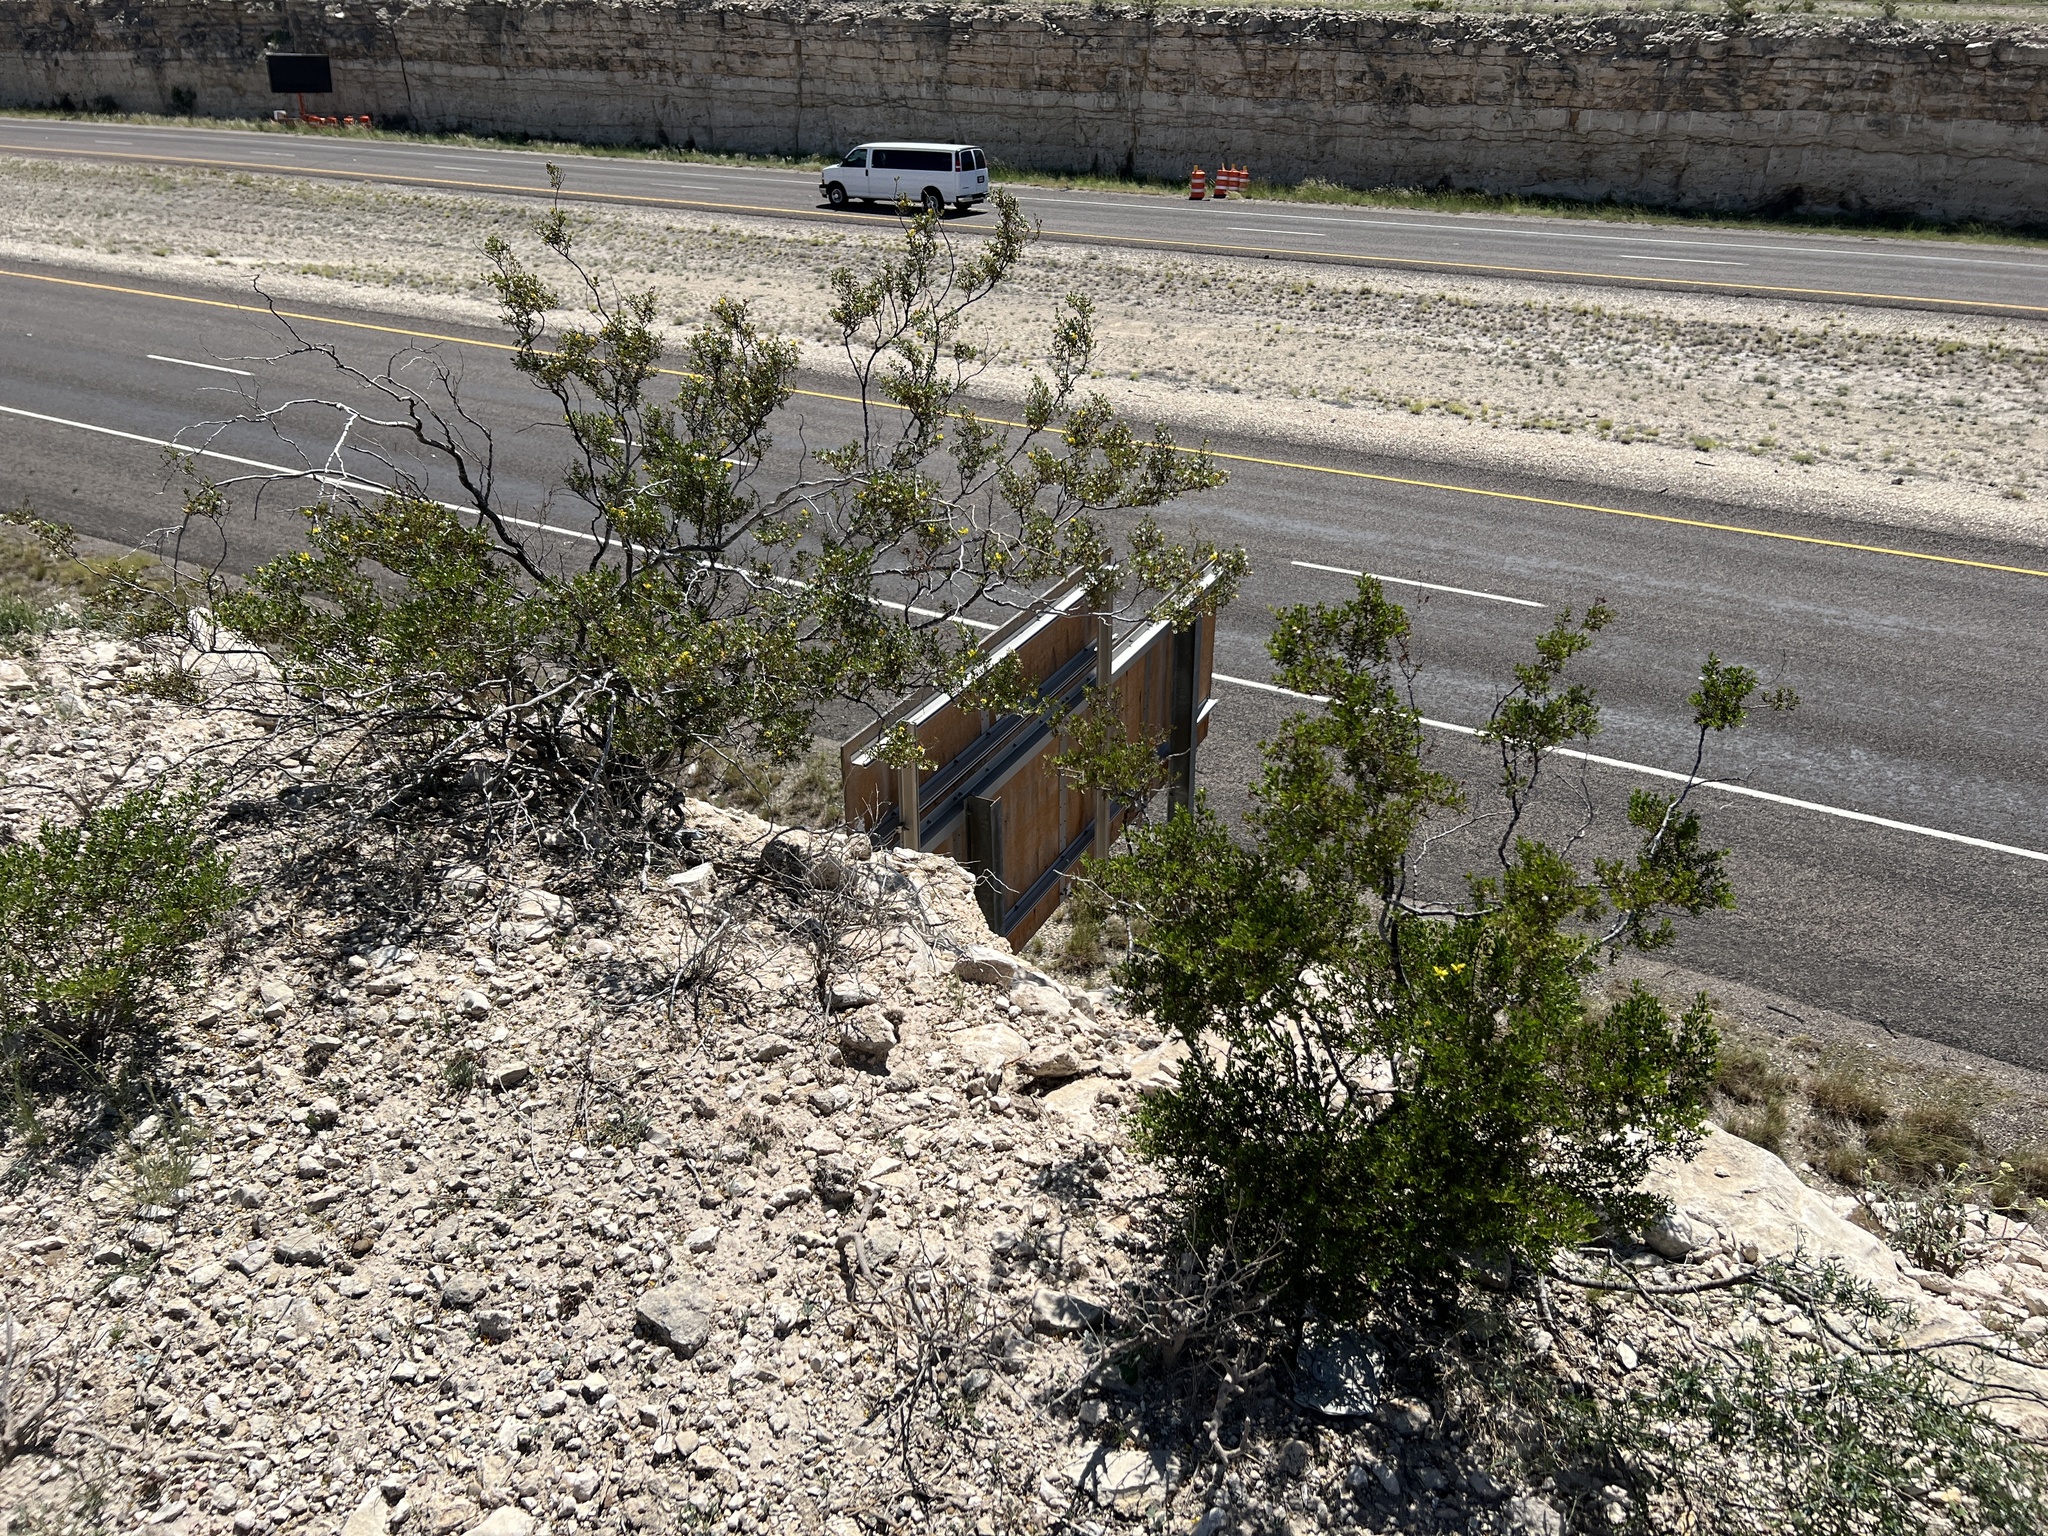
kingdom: Plantae
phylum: Tracheophyta
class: Magnoliopsida
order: Zygophyllales
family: Zygophyllaceae
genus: Larrea
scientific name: Larrea tridentata
